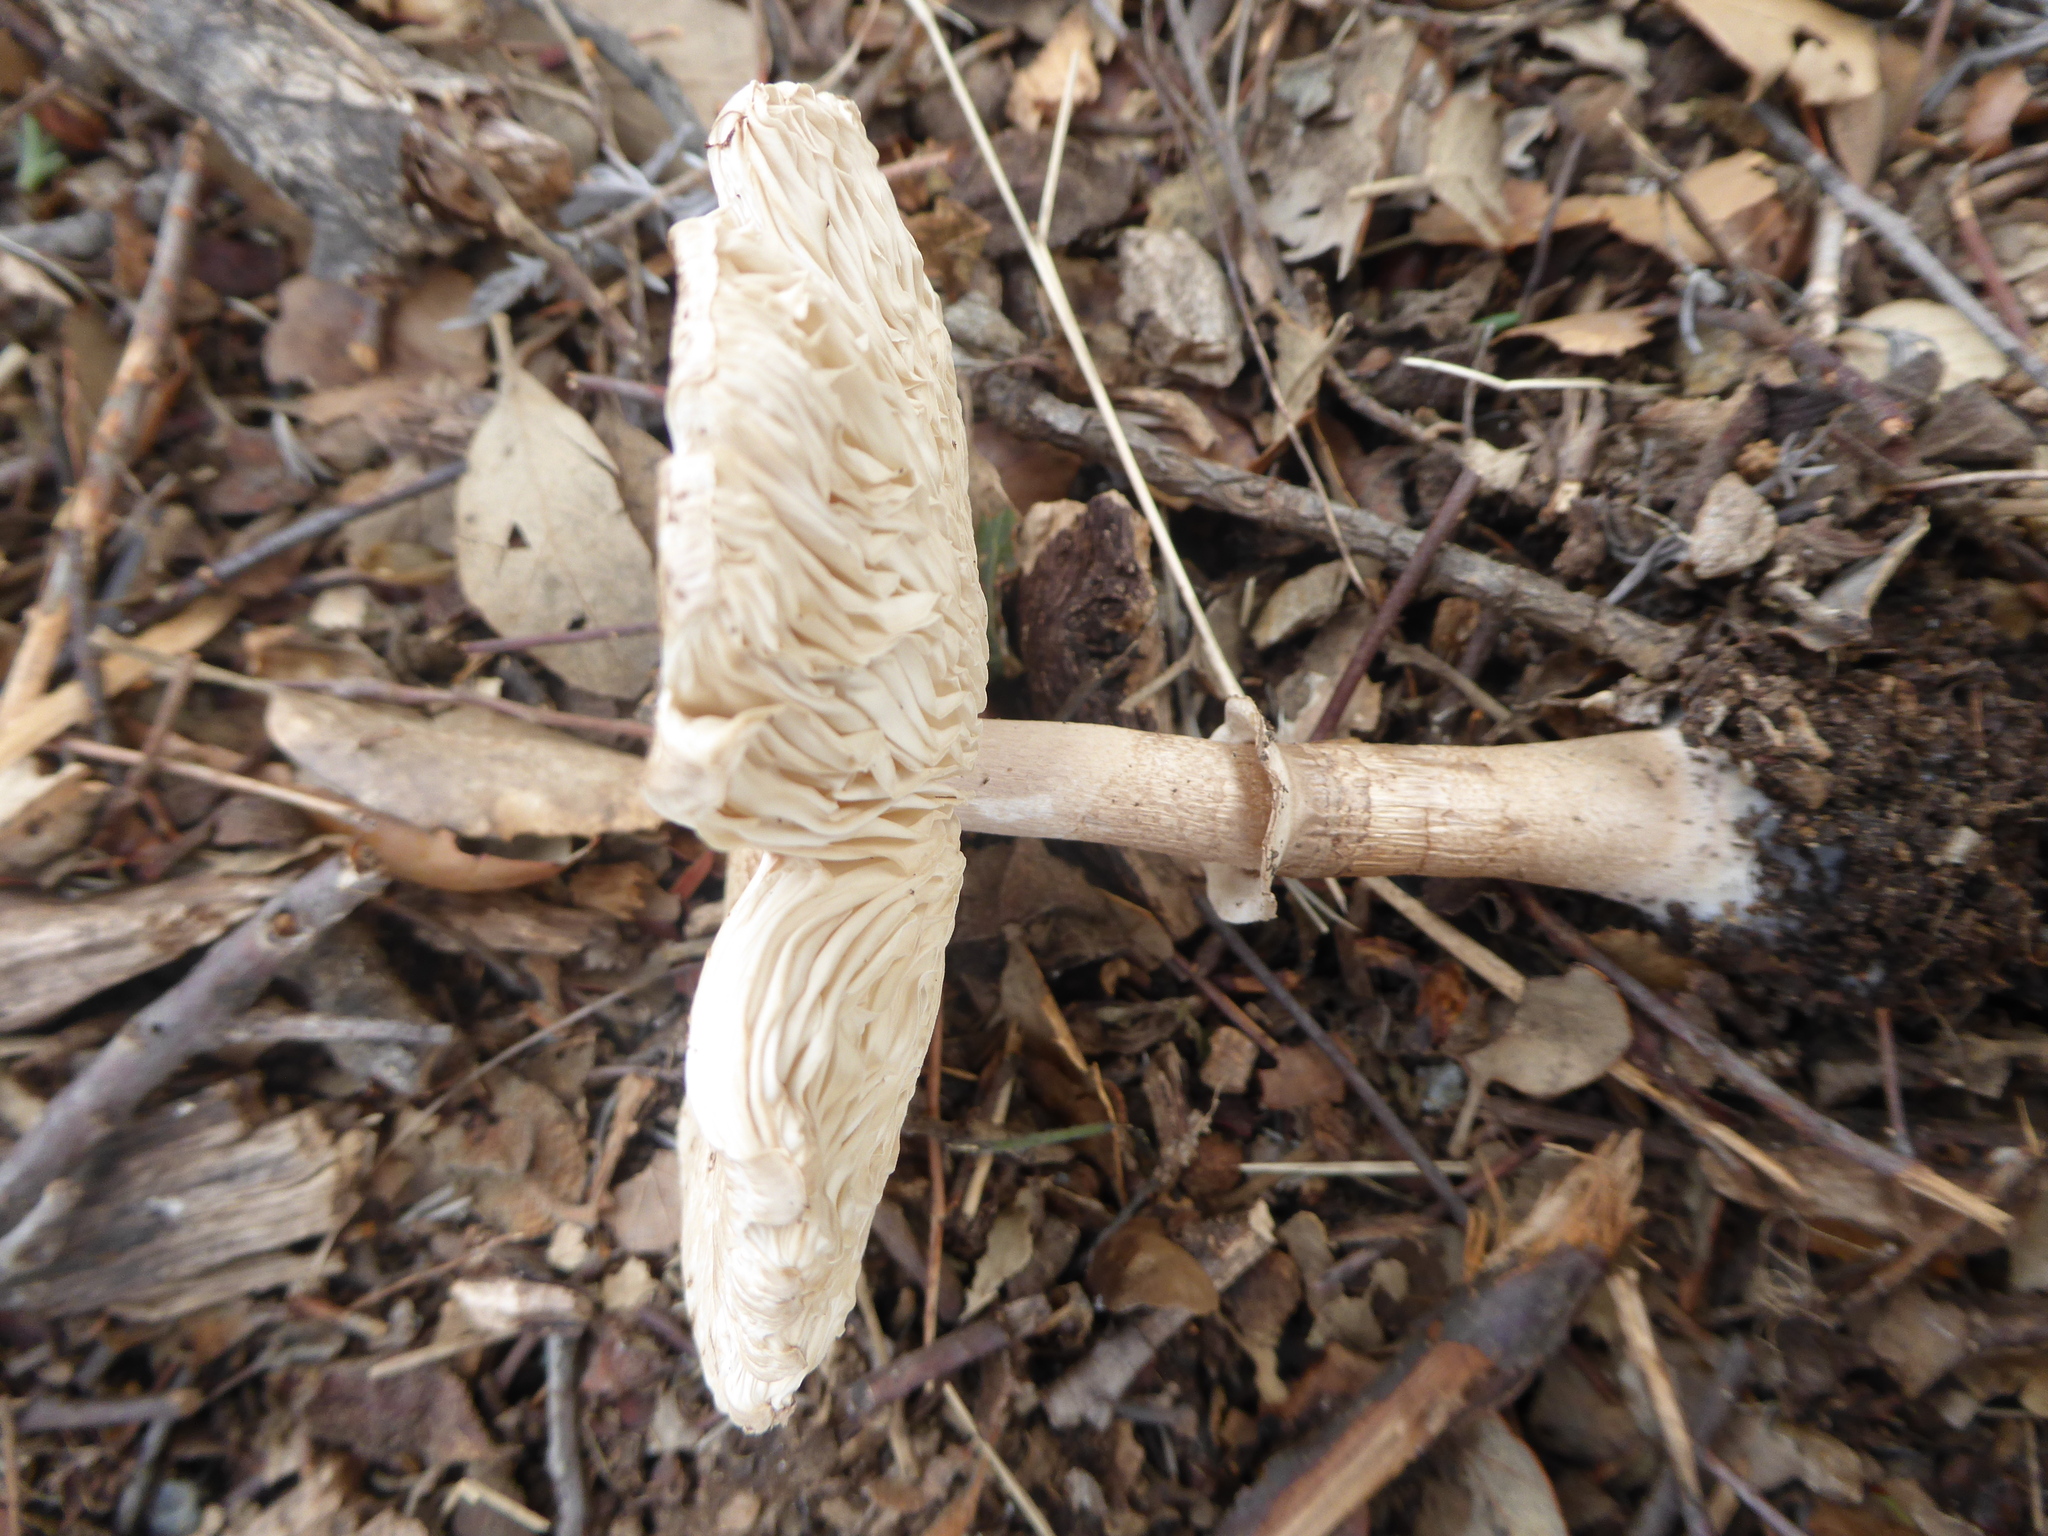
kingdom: Fungi
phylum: Basidiomycota
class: Agaricomycetes
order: Agaricales
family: Agaricaceae
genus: Macrolepiota
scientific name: Macrolepiota mastoidea
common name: Slender parasol
